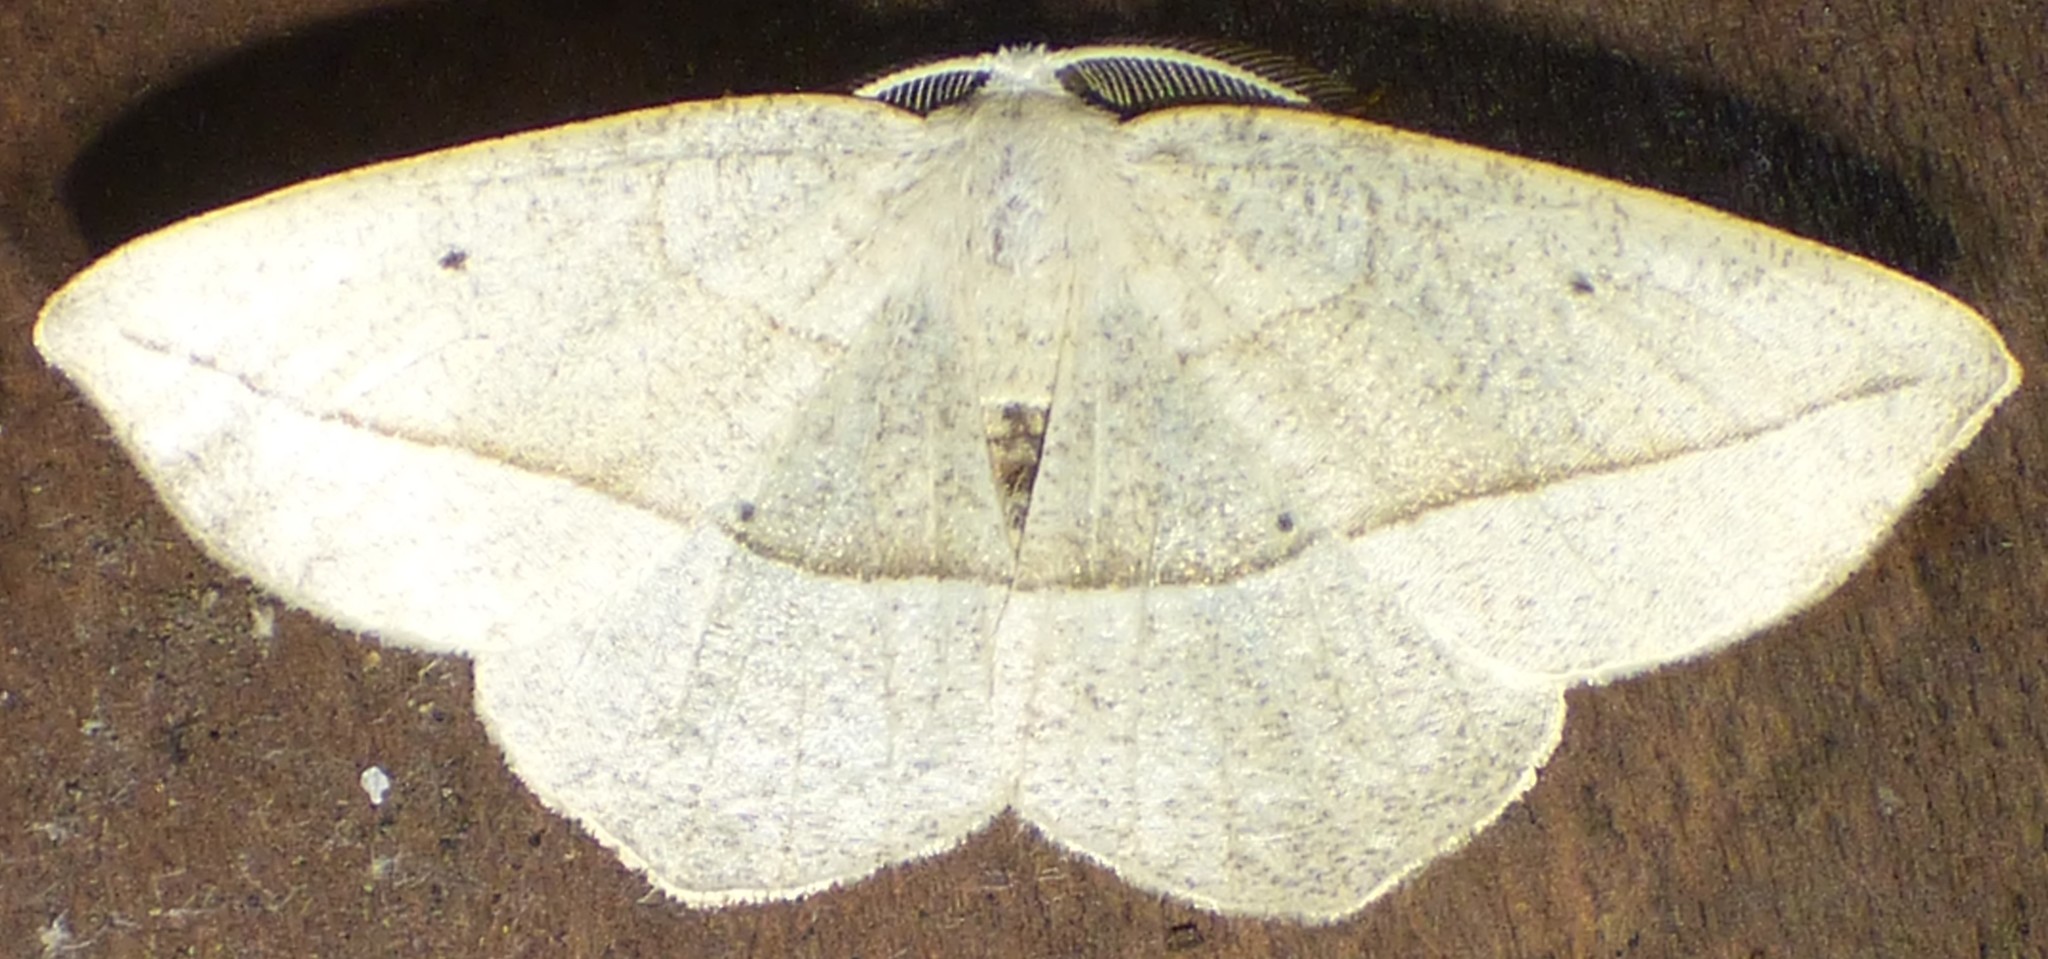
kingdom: Animalia
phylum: Arthropoda
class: Insecta
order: Lepidoptera
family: Geometridae
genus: Eusarca
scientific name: Eusarca confusaria
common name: Confused eusarca
